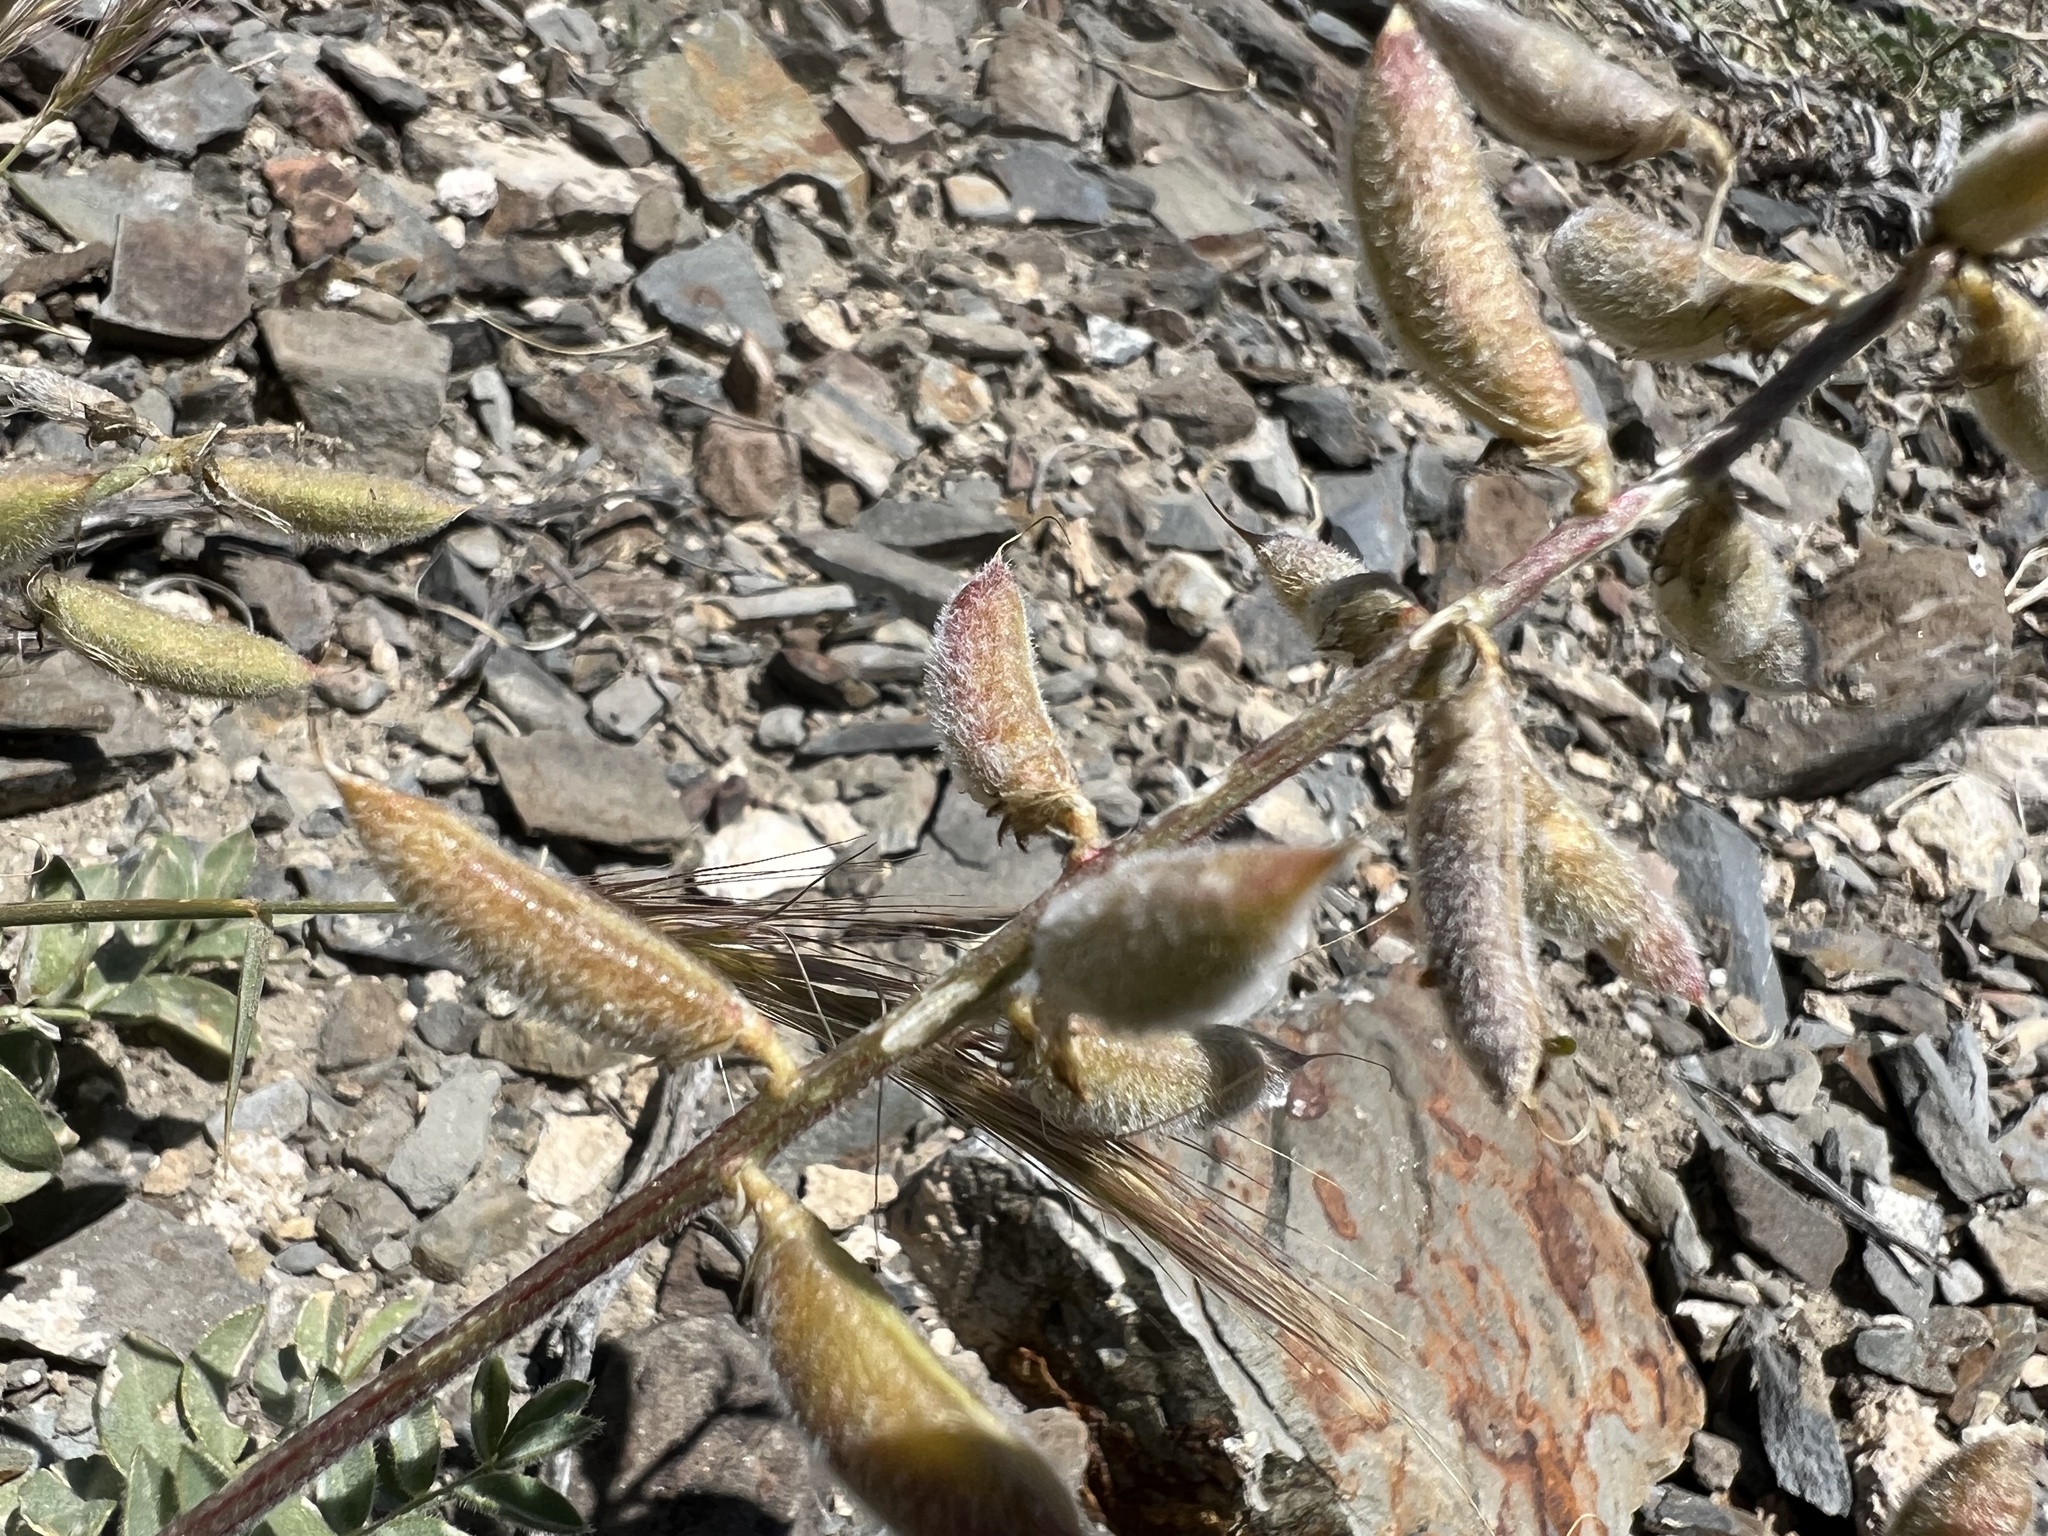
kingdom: Plantae
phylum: Tracheophyta
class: Magnoliopsida
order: Fabales
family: Fabaceae
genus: Astragalus
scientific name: Astragalus minthorniae
